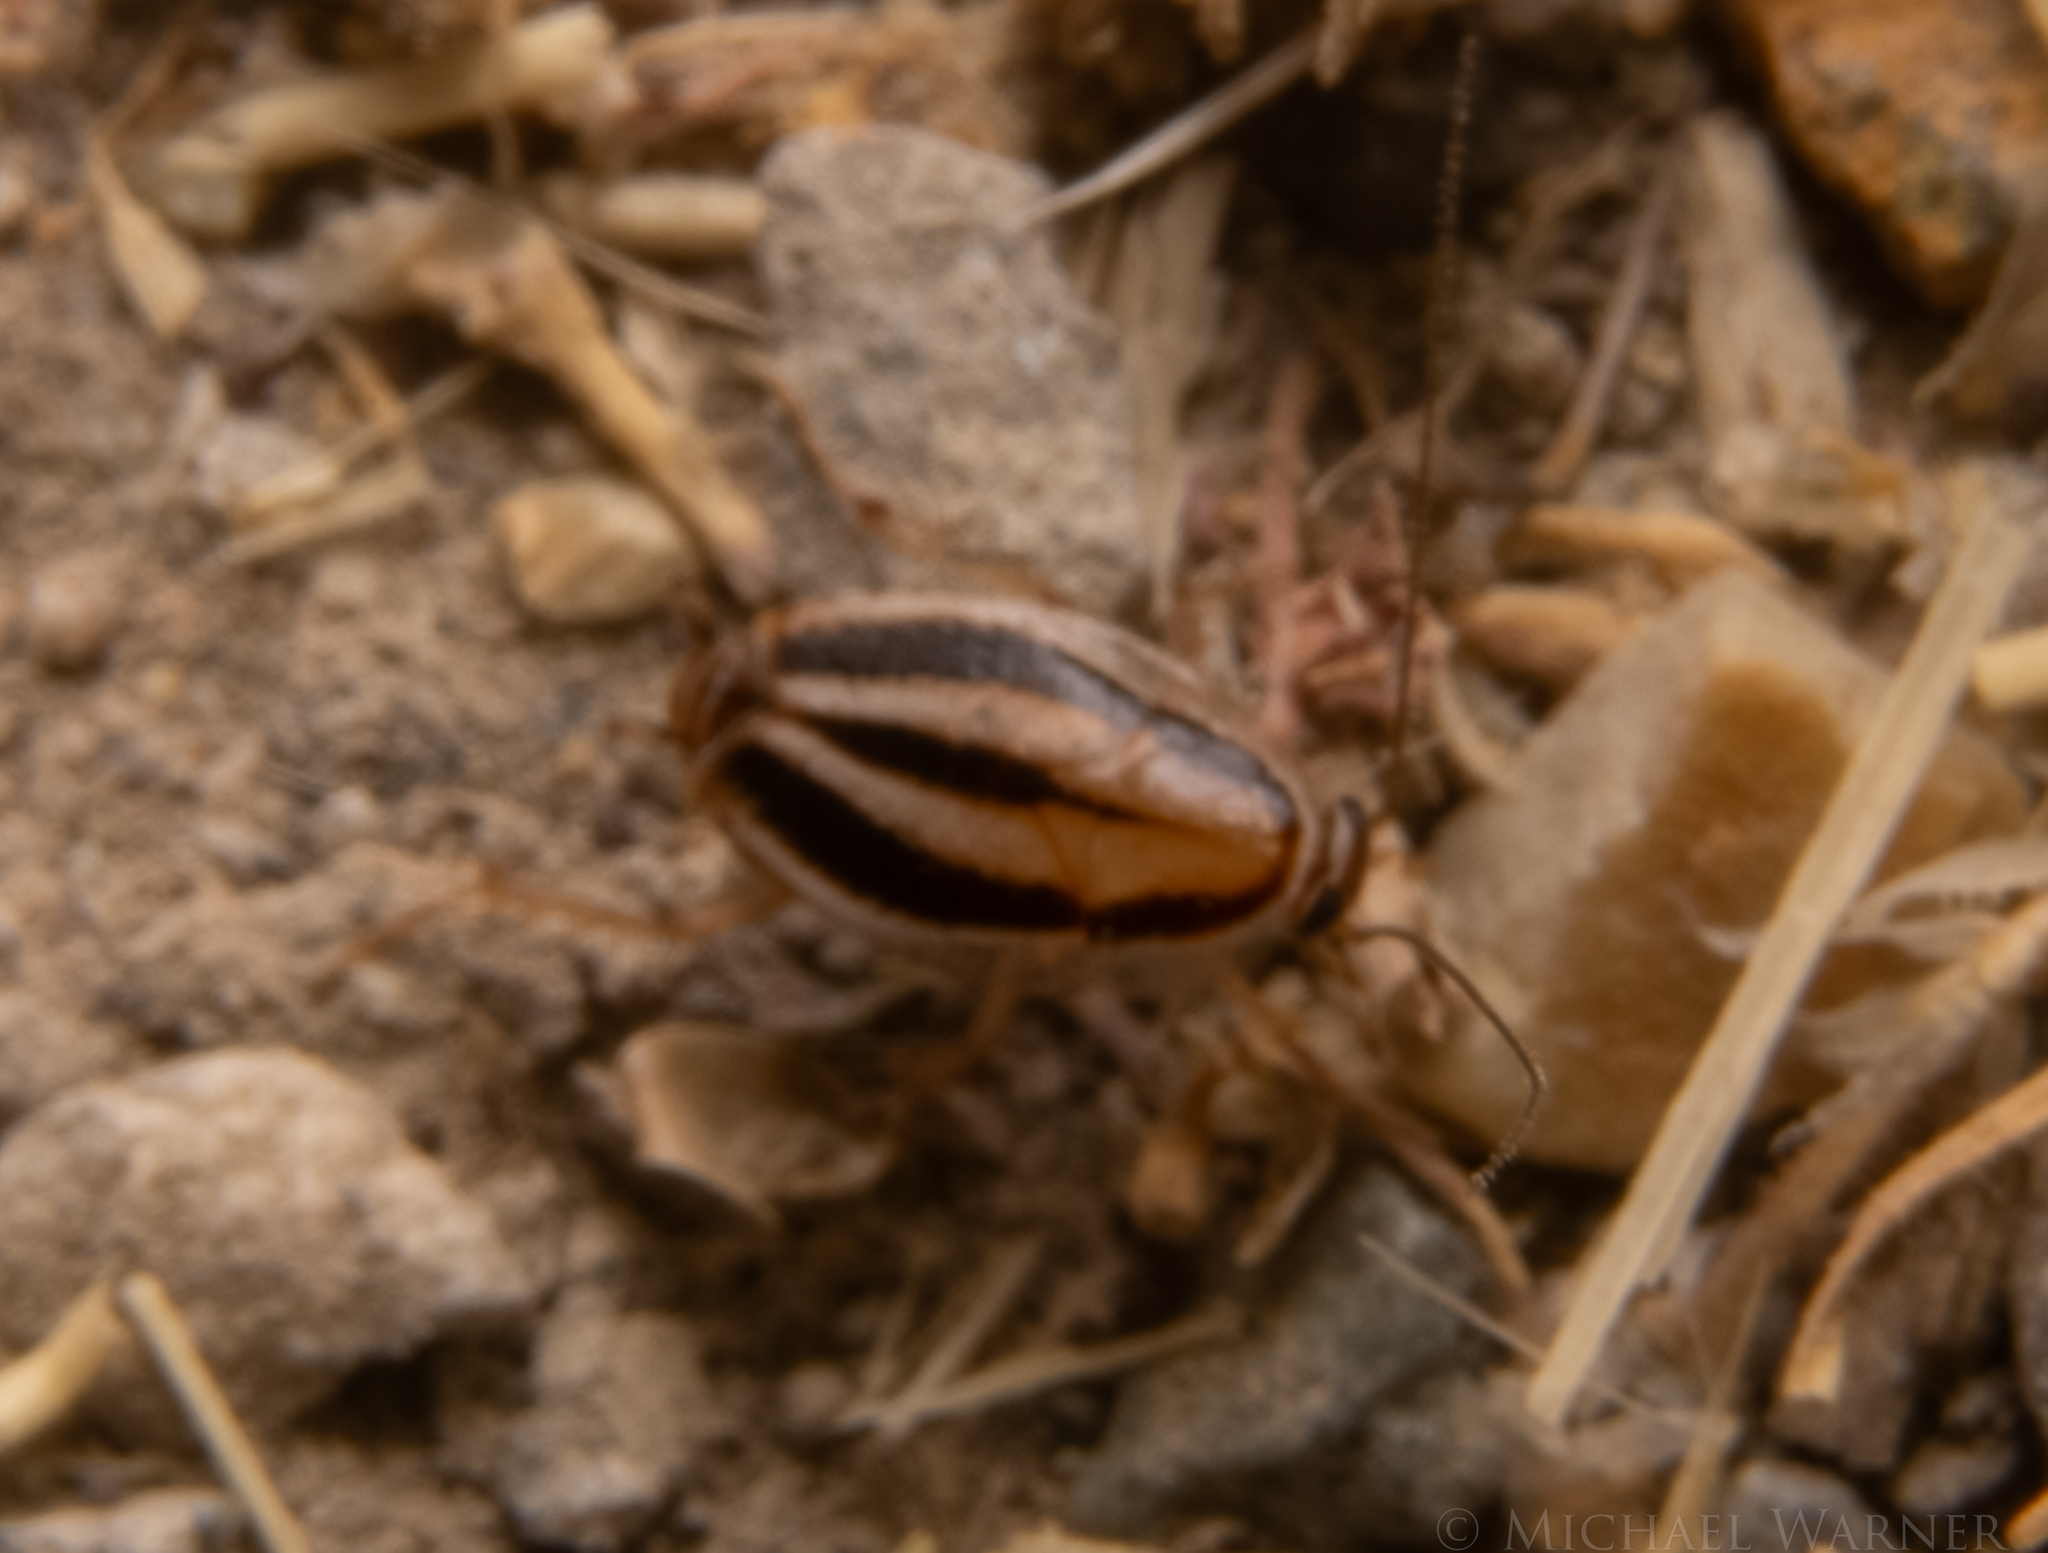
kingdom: Animalia
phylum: Arthropoda
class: Insecta
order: Blattodea
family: Ectobiidae
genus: Luridiblatta
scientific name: Luridiblatta trivittata
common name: Three-lined cockroach
